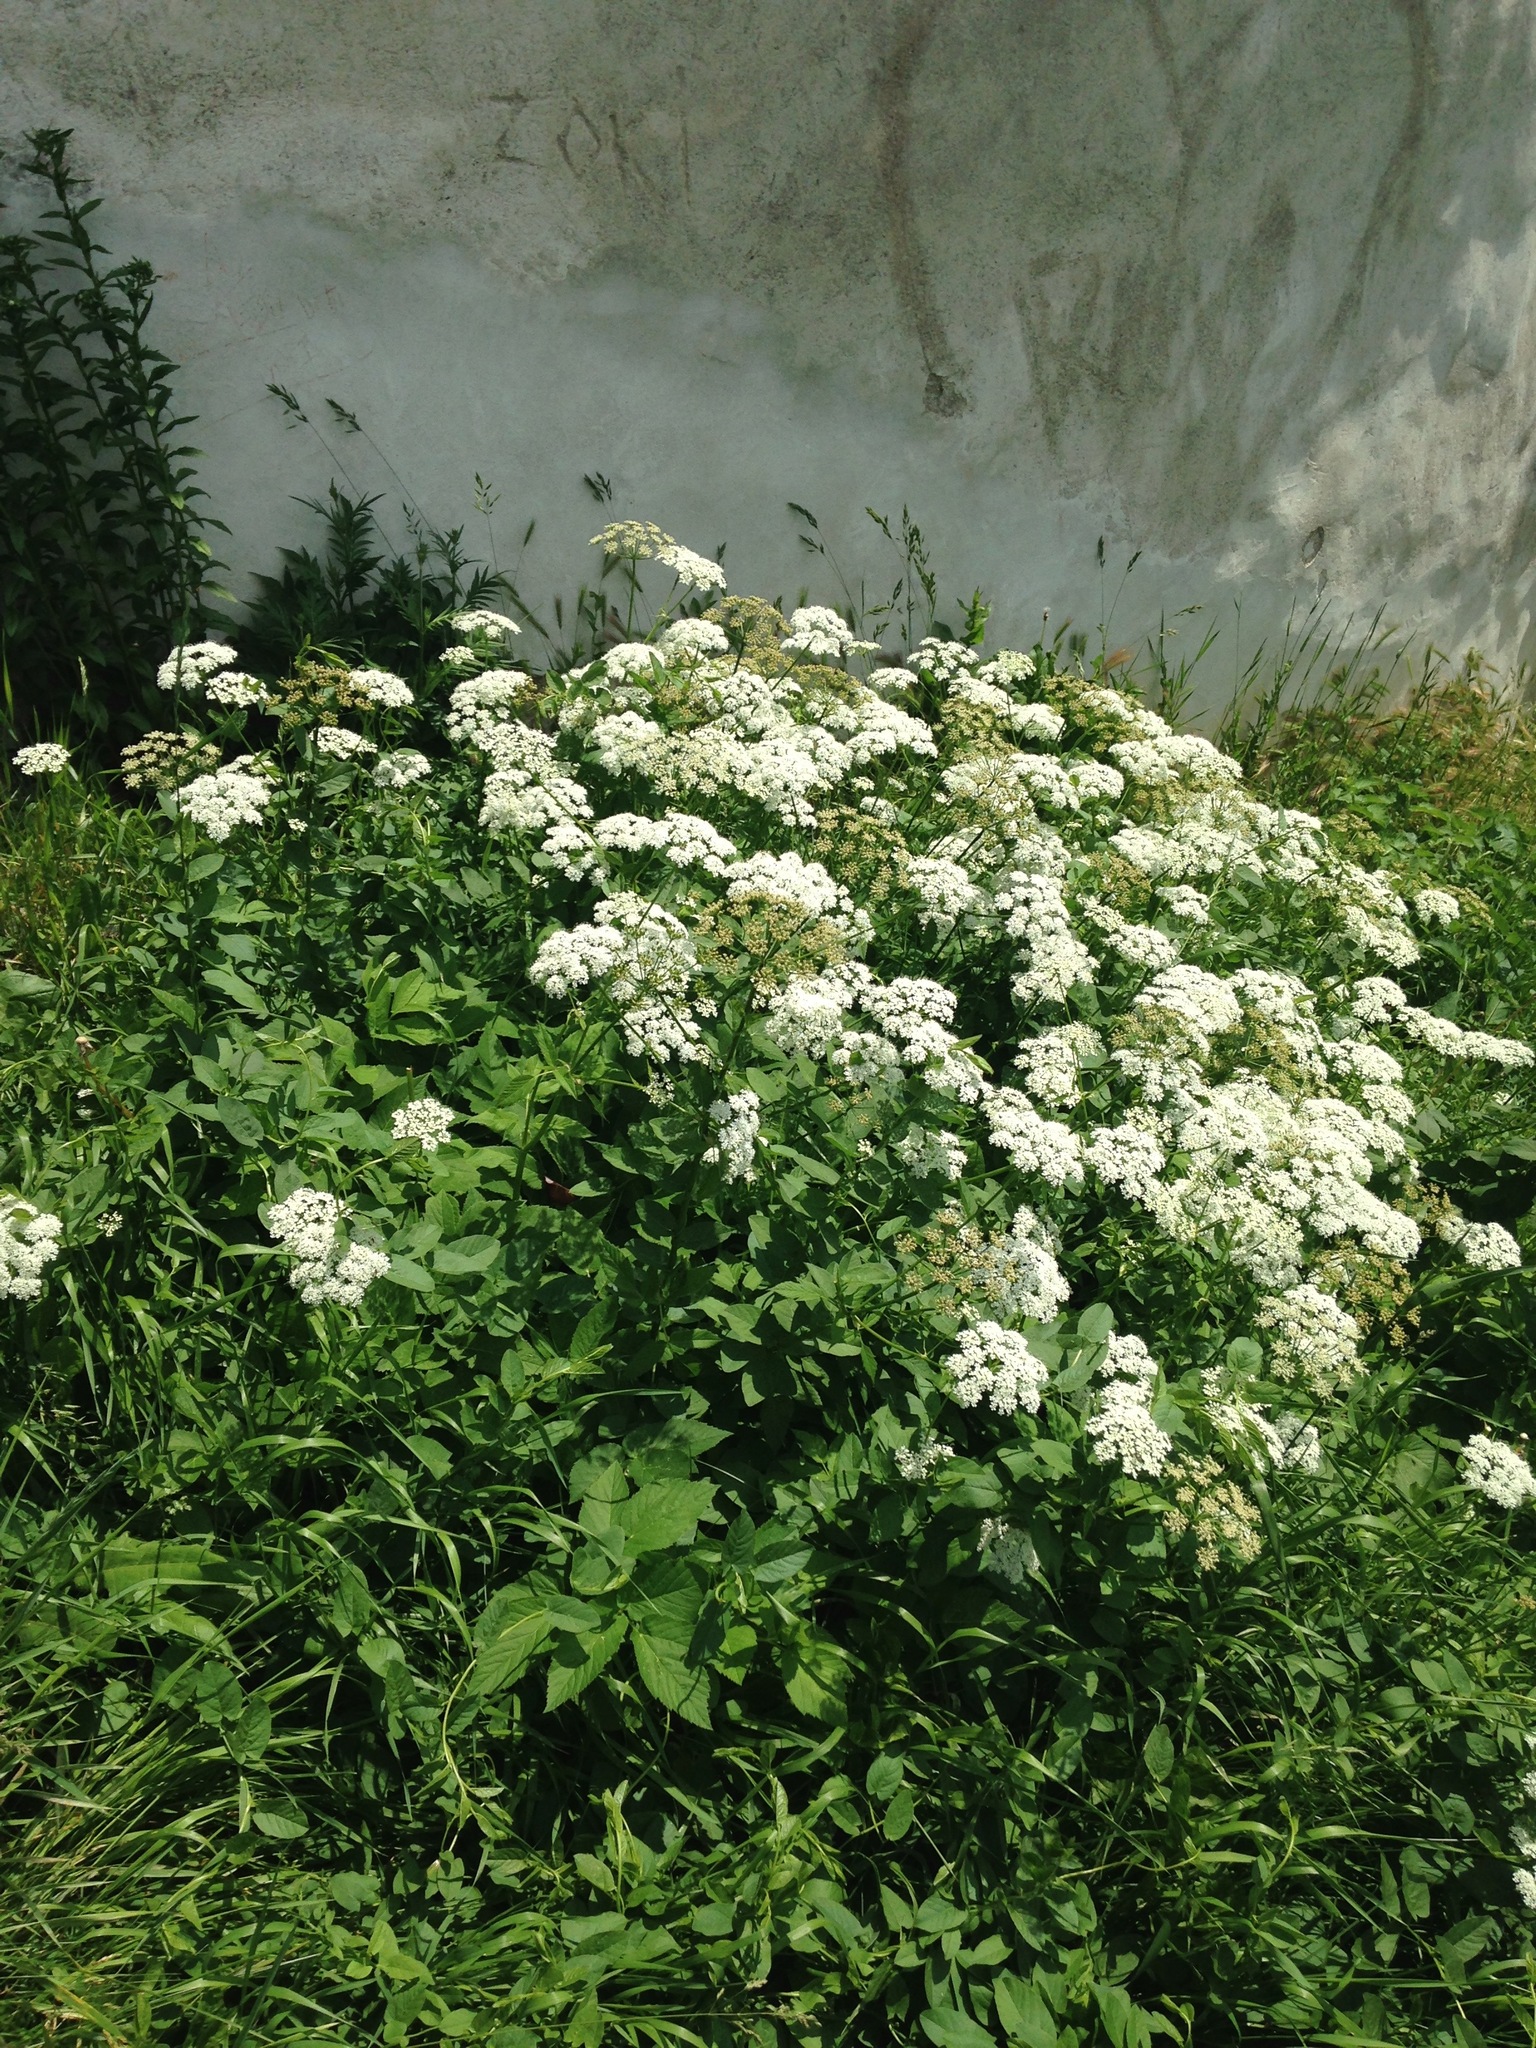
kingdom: Plantae
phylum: Tracheophyta
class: Magnoliopsida
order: Apiales
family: Apiaceae
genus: Aegopodium
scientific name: Aegopodium podagraria
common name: Ground-elder
